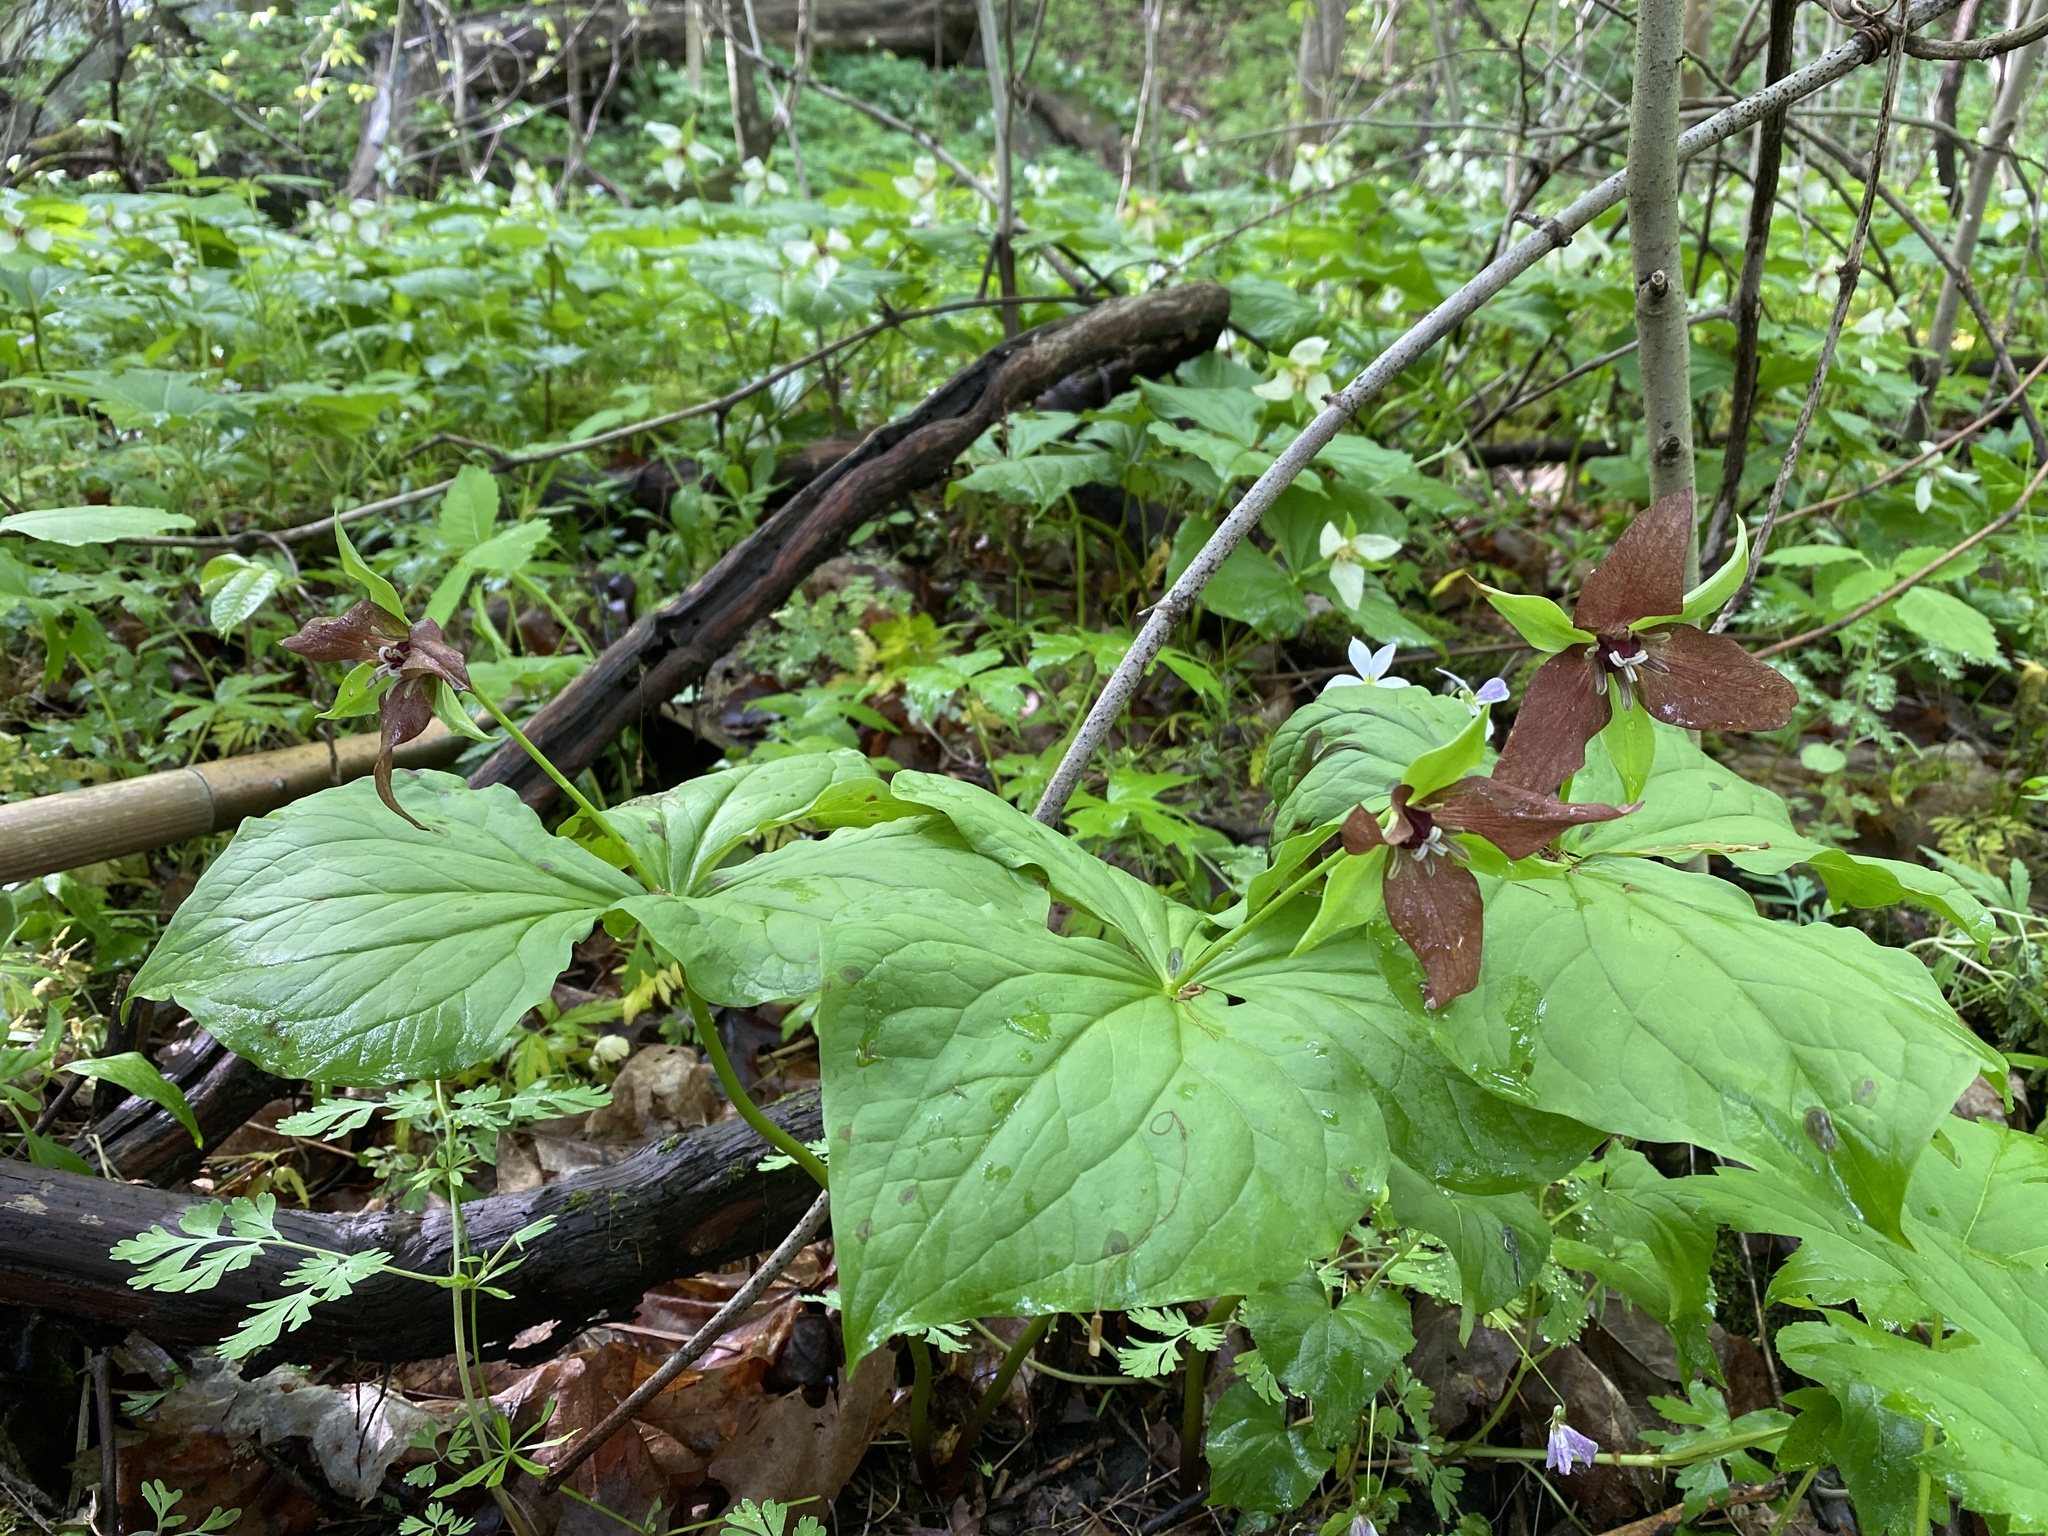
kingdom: Plantae
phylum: Tracheophyta
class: Liliopsida
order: Liliales
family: Melanthiaceae
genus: Trillium
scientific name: Trillium erectum
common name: Purple trillium
